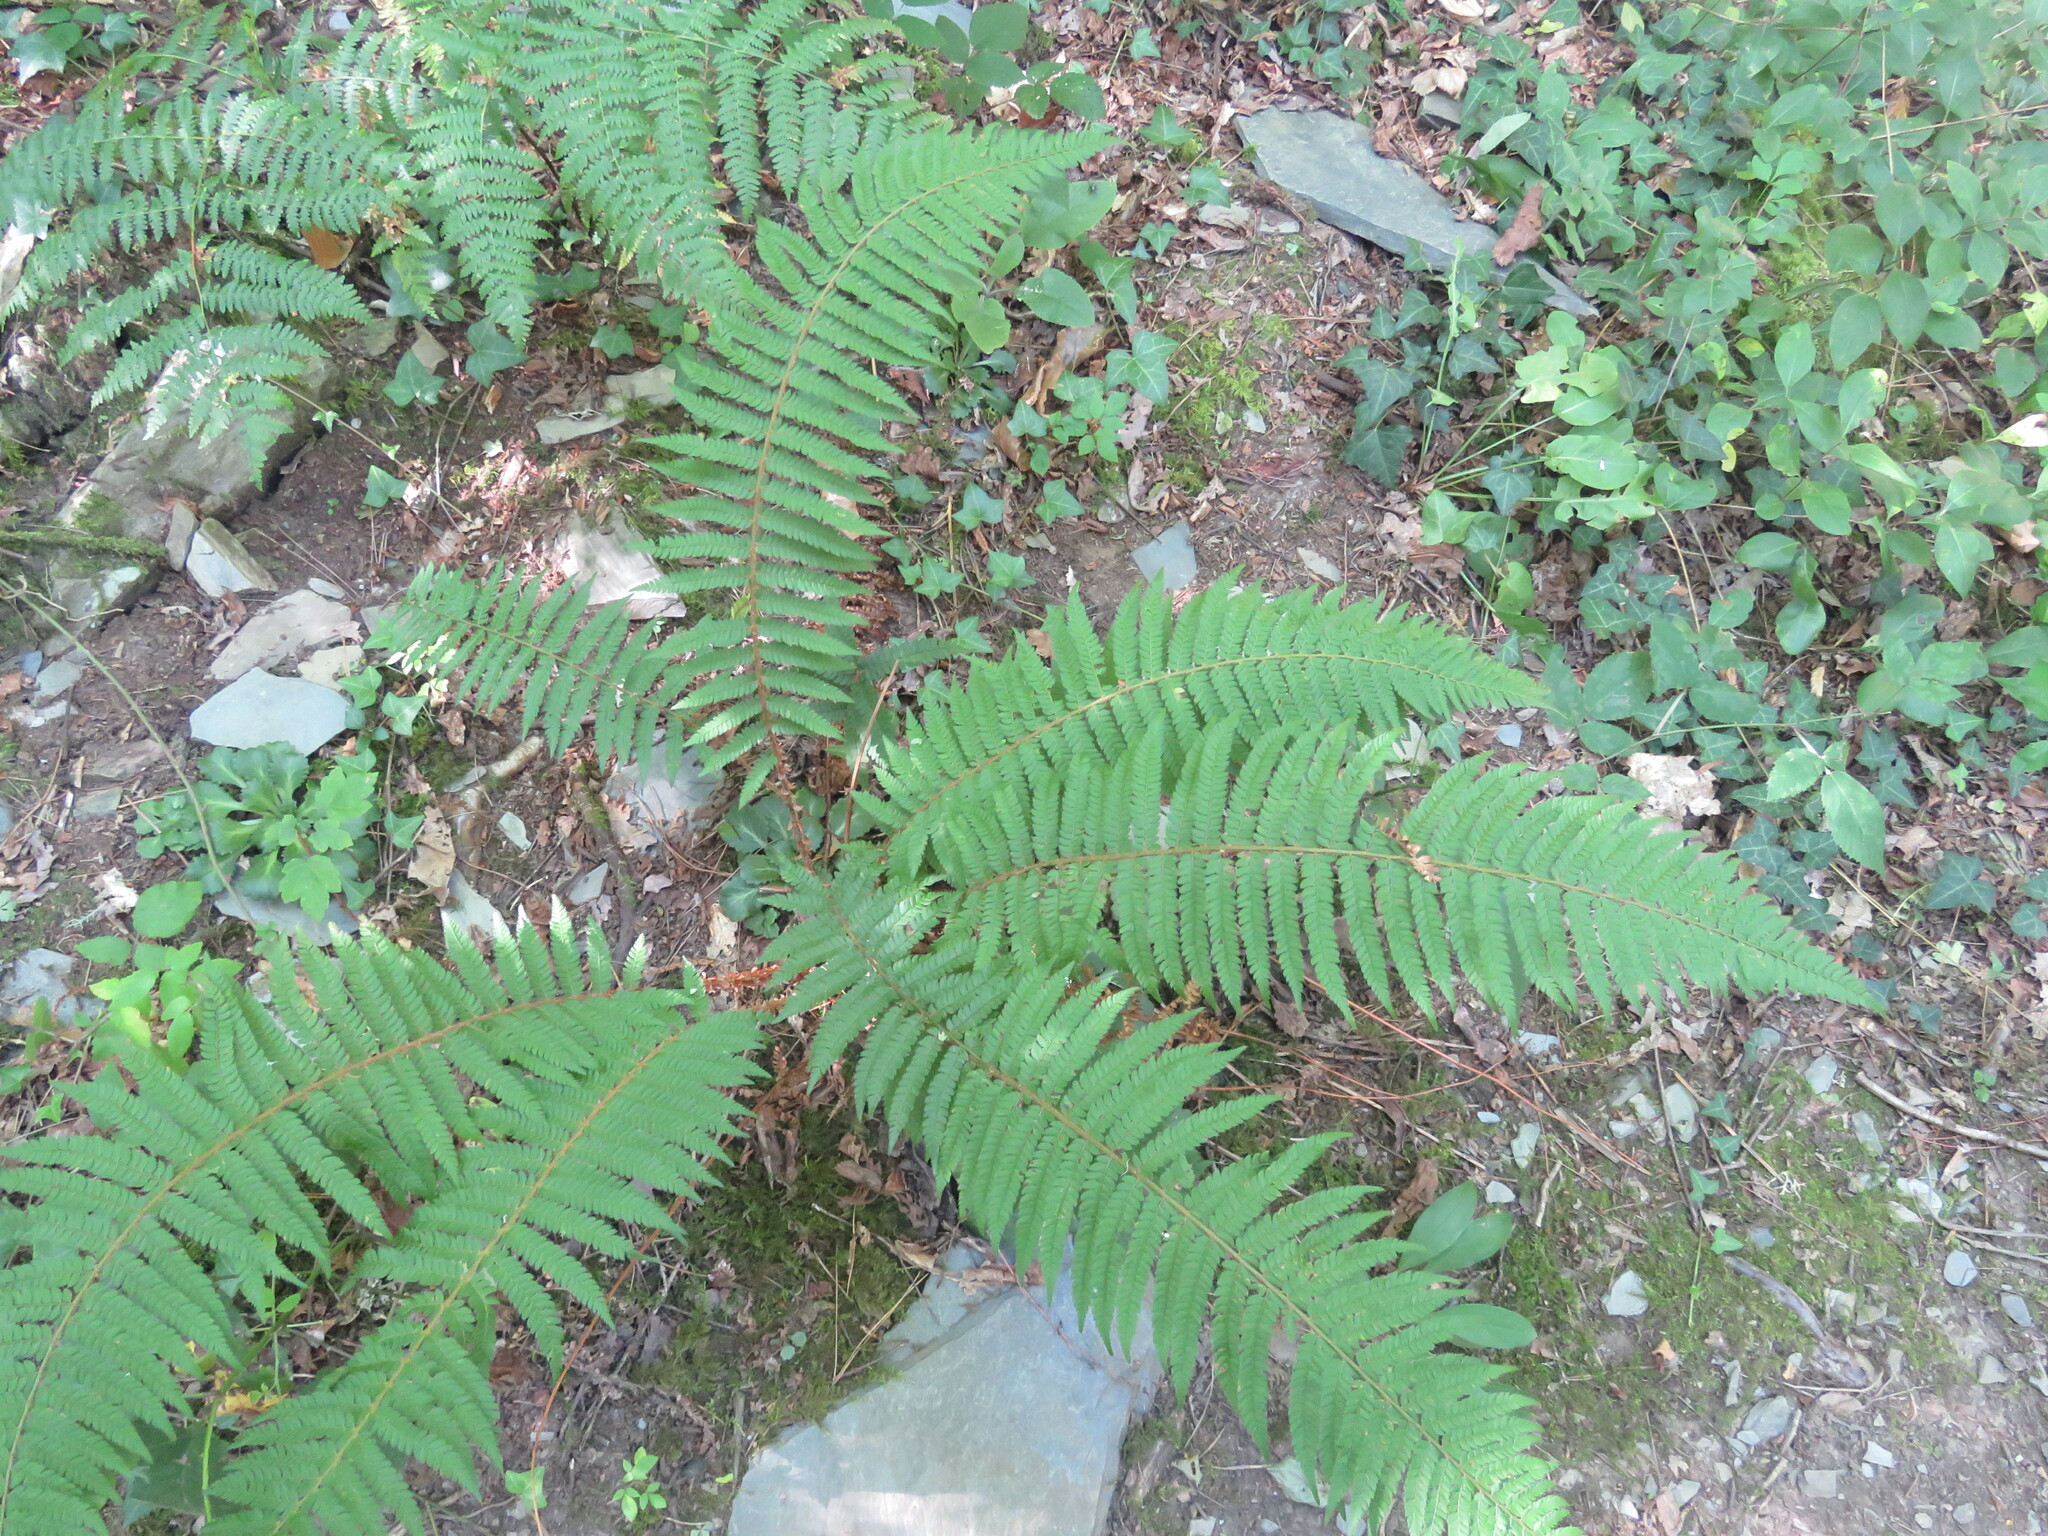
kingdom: Plantae
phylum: Tracheophyta
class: Polypodiopsida
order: Polypodiales
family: Dryopteridaceae
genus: Polystichum
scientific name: Polystichum setiferum
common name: Soft shield-fern
